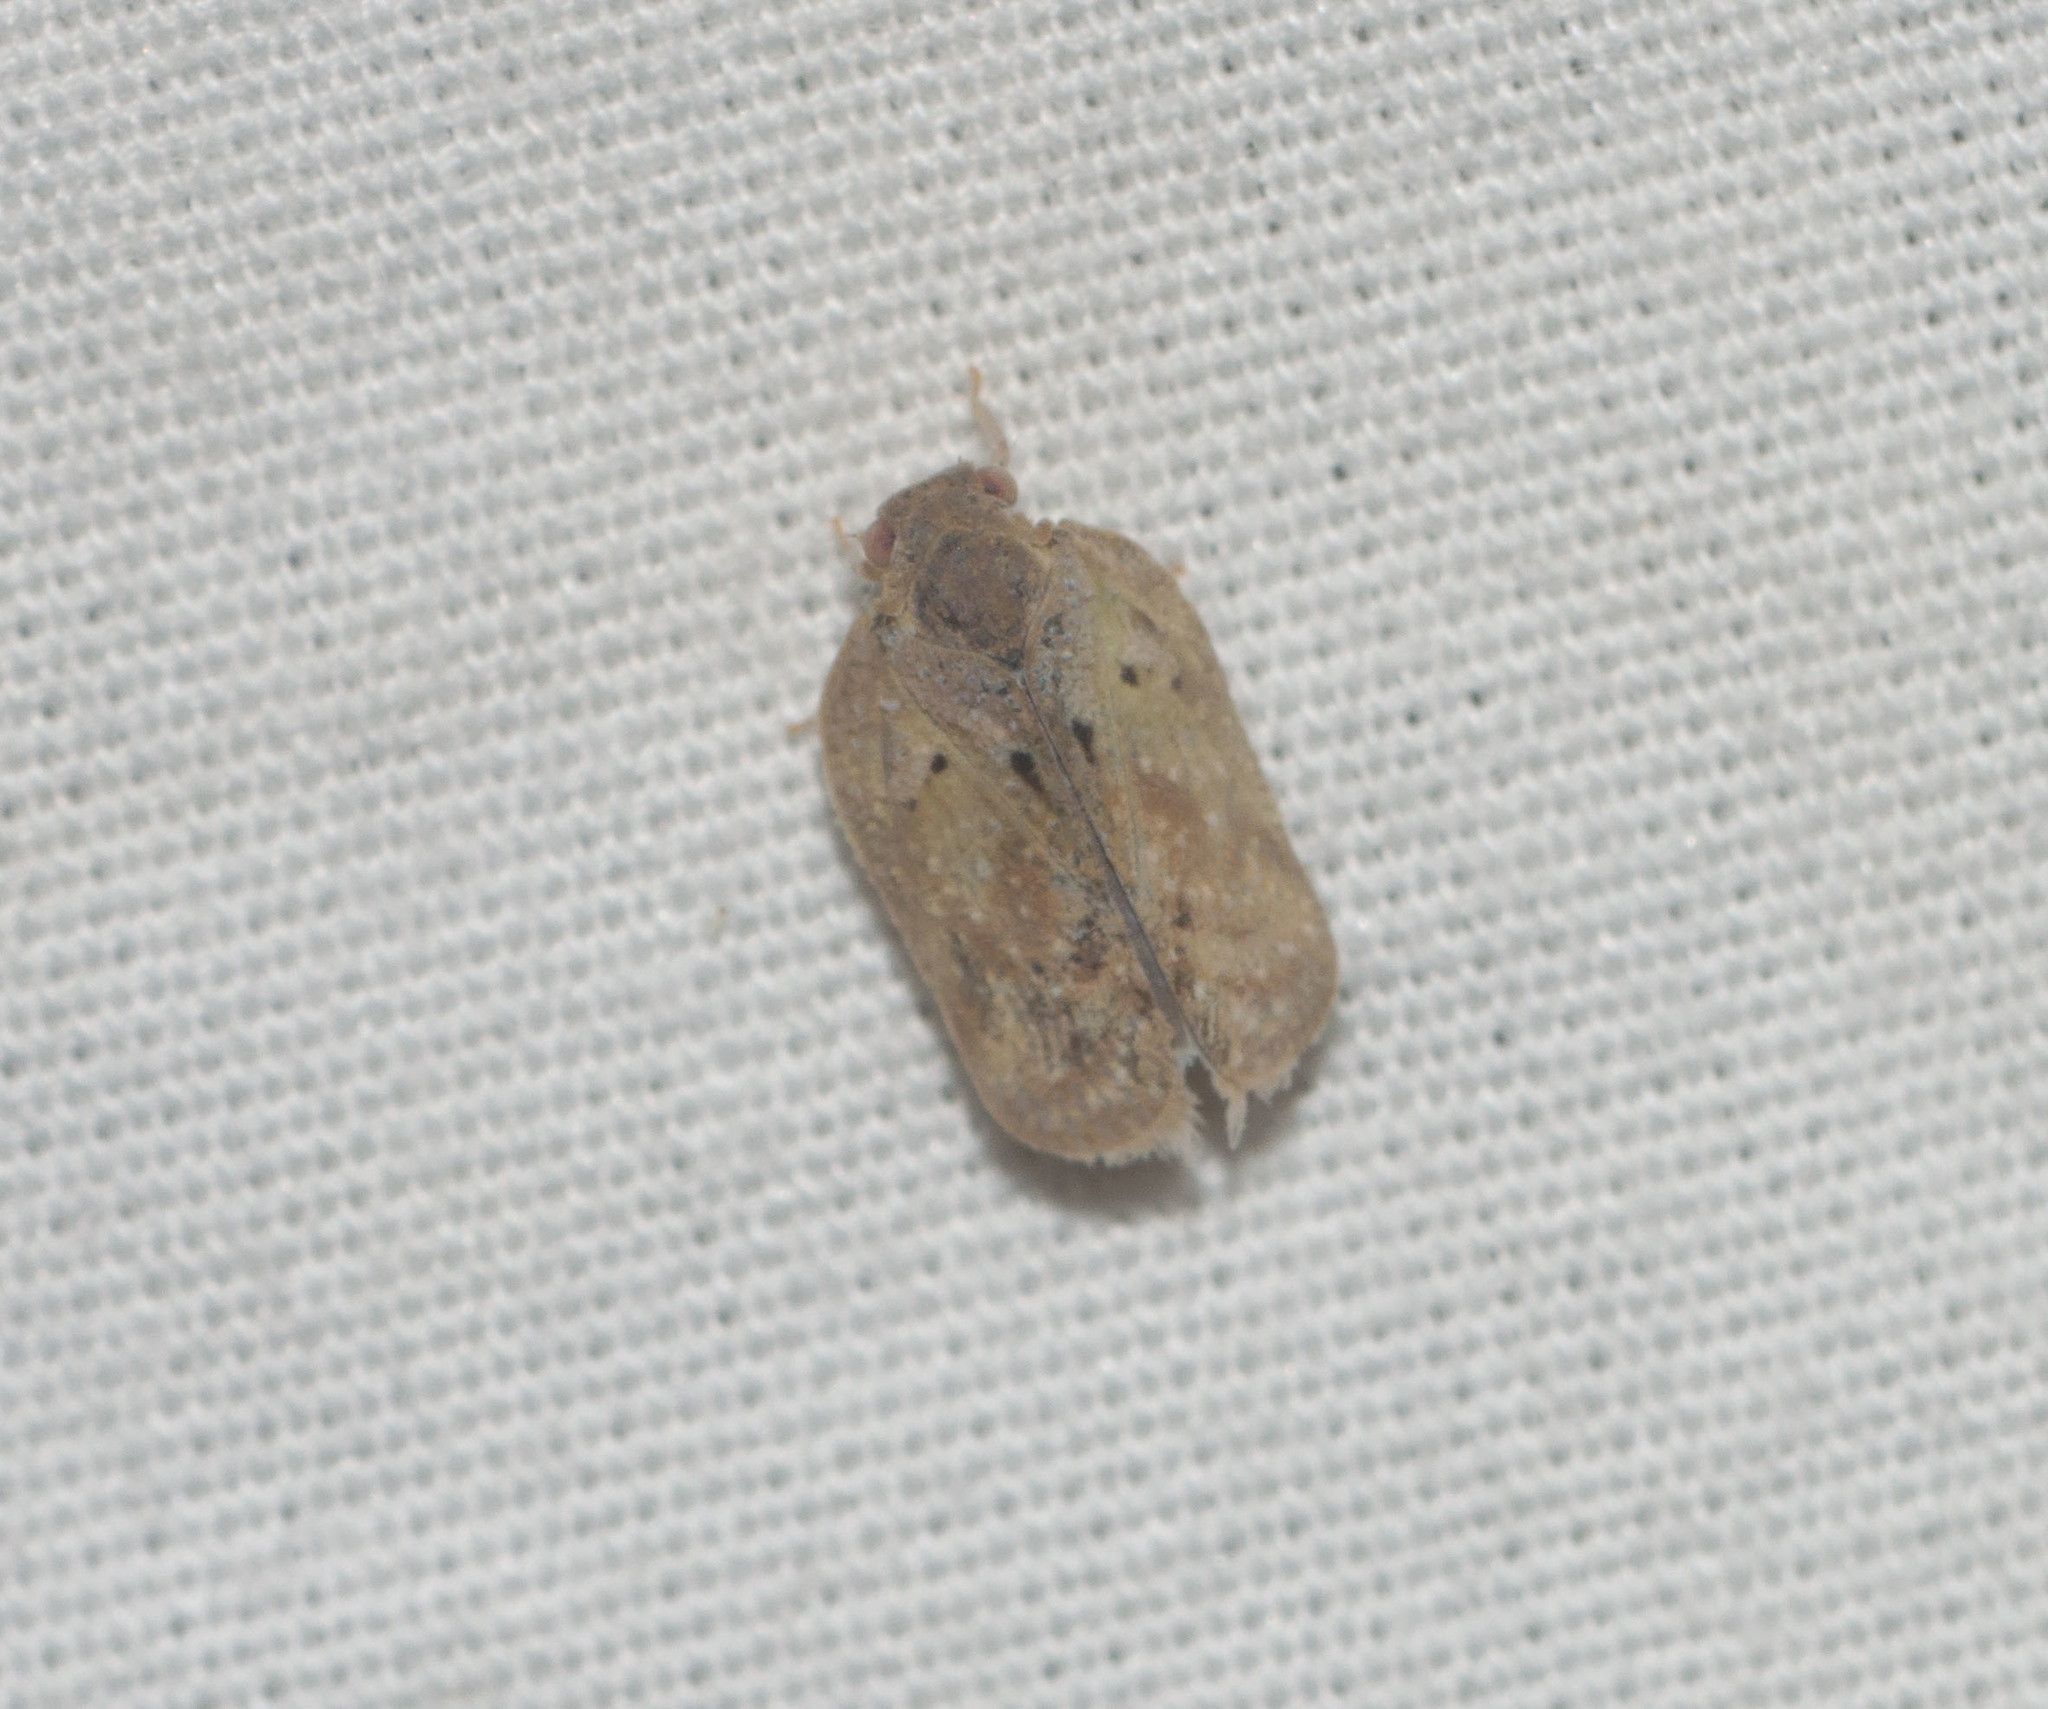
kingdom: Animalia
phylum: Arthropoda
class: Insecta
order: Hemiptera
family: Flatidae
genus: Melormenis
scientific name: Melormenis basalis
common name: Puerto rican planthopper
